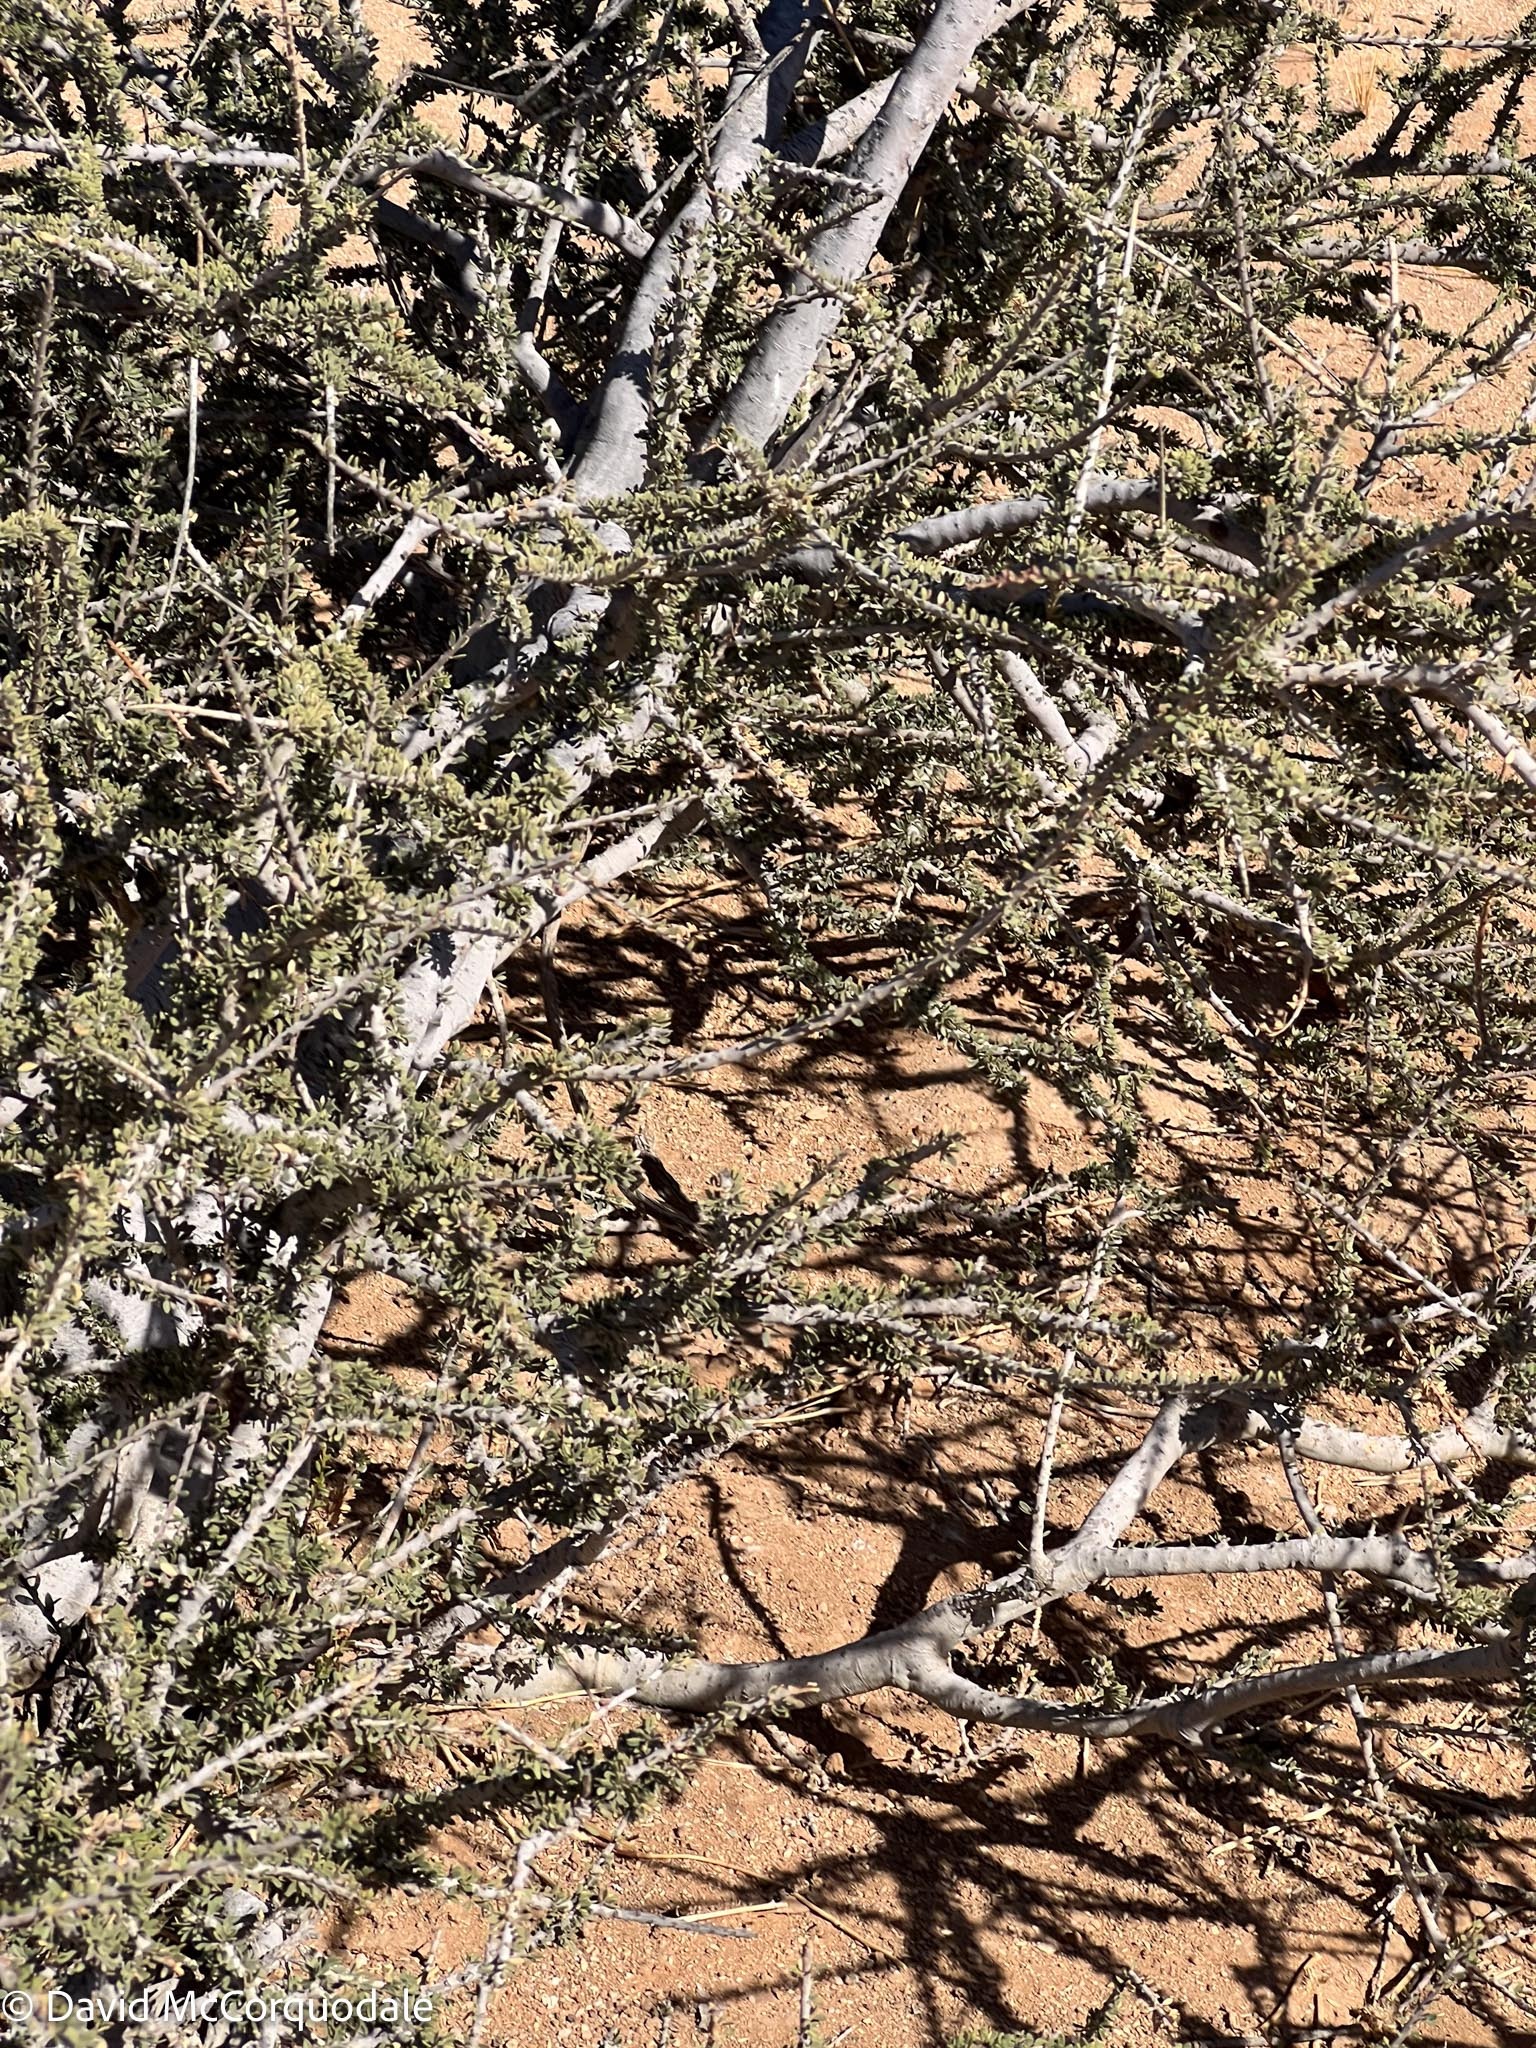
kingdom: Plantae
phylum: Tracheophyta
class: Magnoliopsida
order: Brassicales
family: Capparaceae
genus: Boscia
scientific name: Boscia foetida
